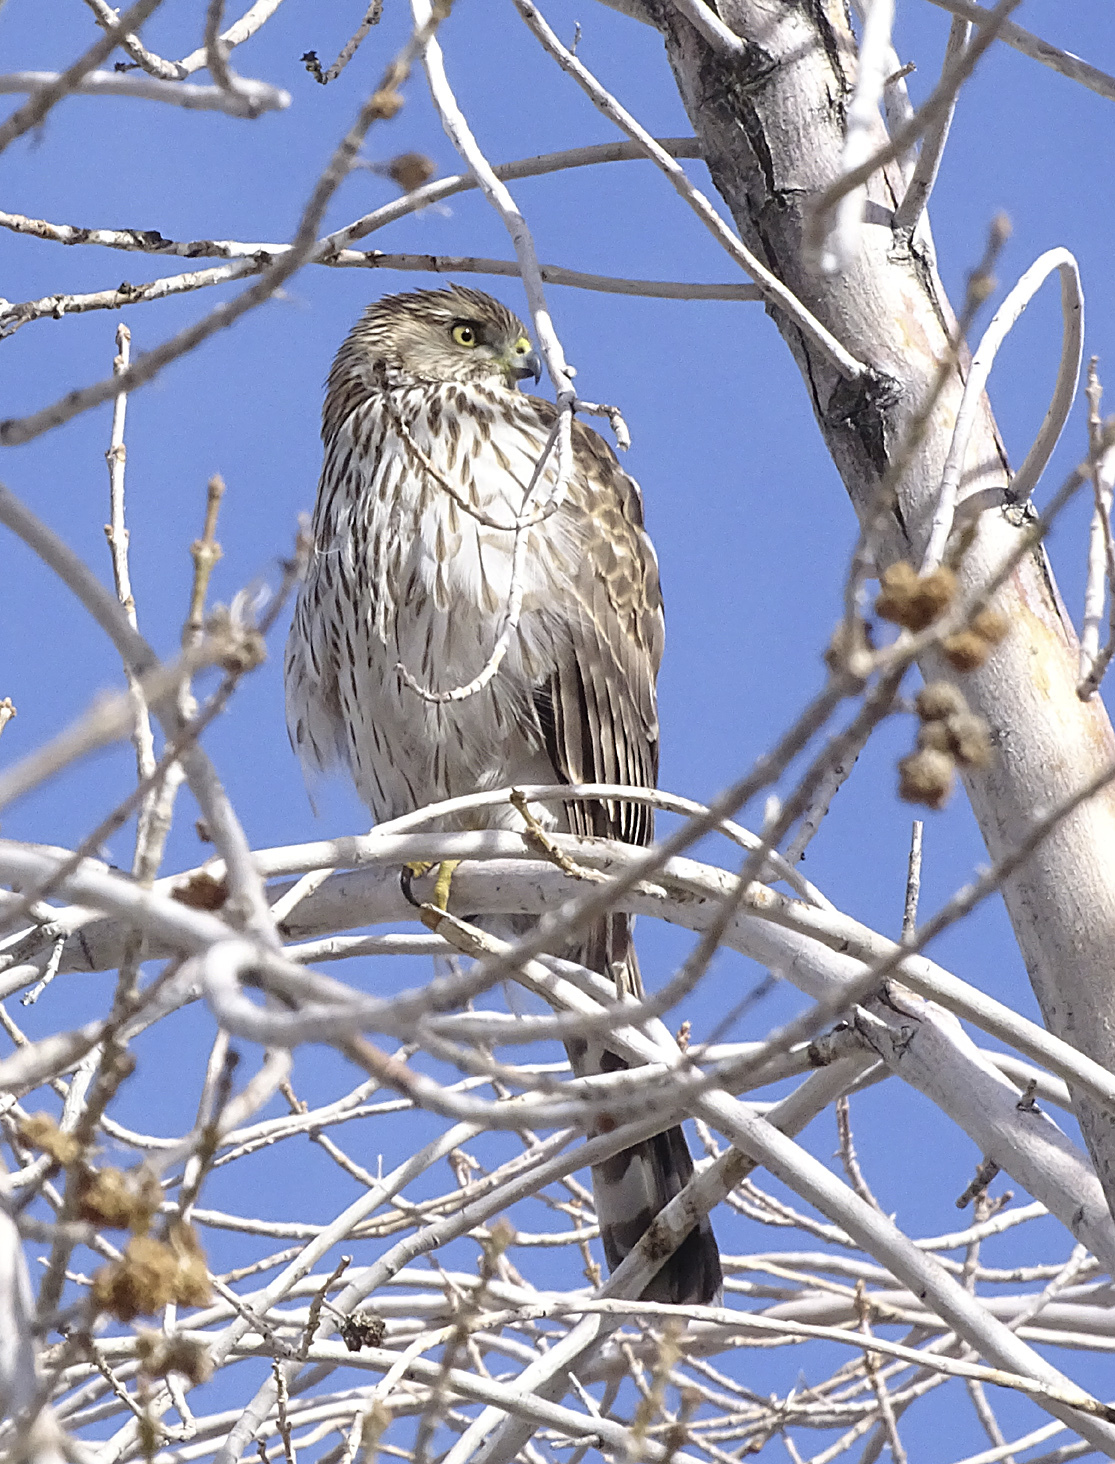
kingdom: Animalia
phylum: Chordata
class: Aves
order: Accipitriformes
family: Accipitridae
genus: Accipiter
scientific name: Accipiter cooperii
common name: Cooper's hawk
